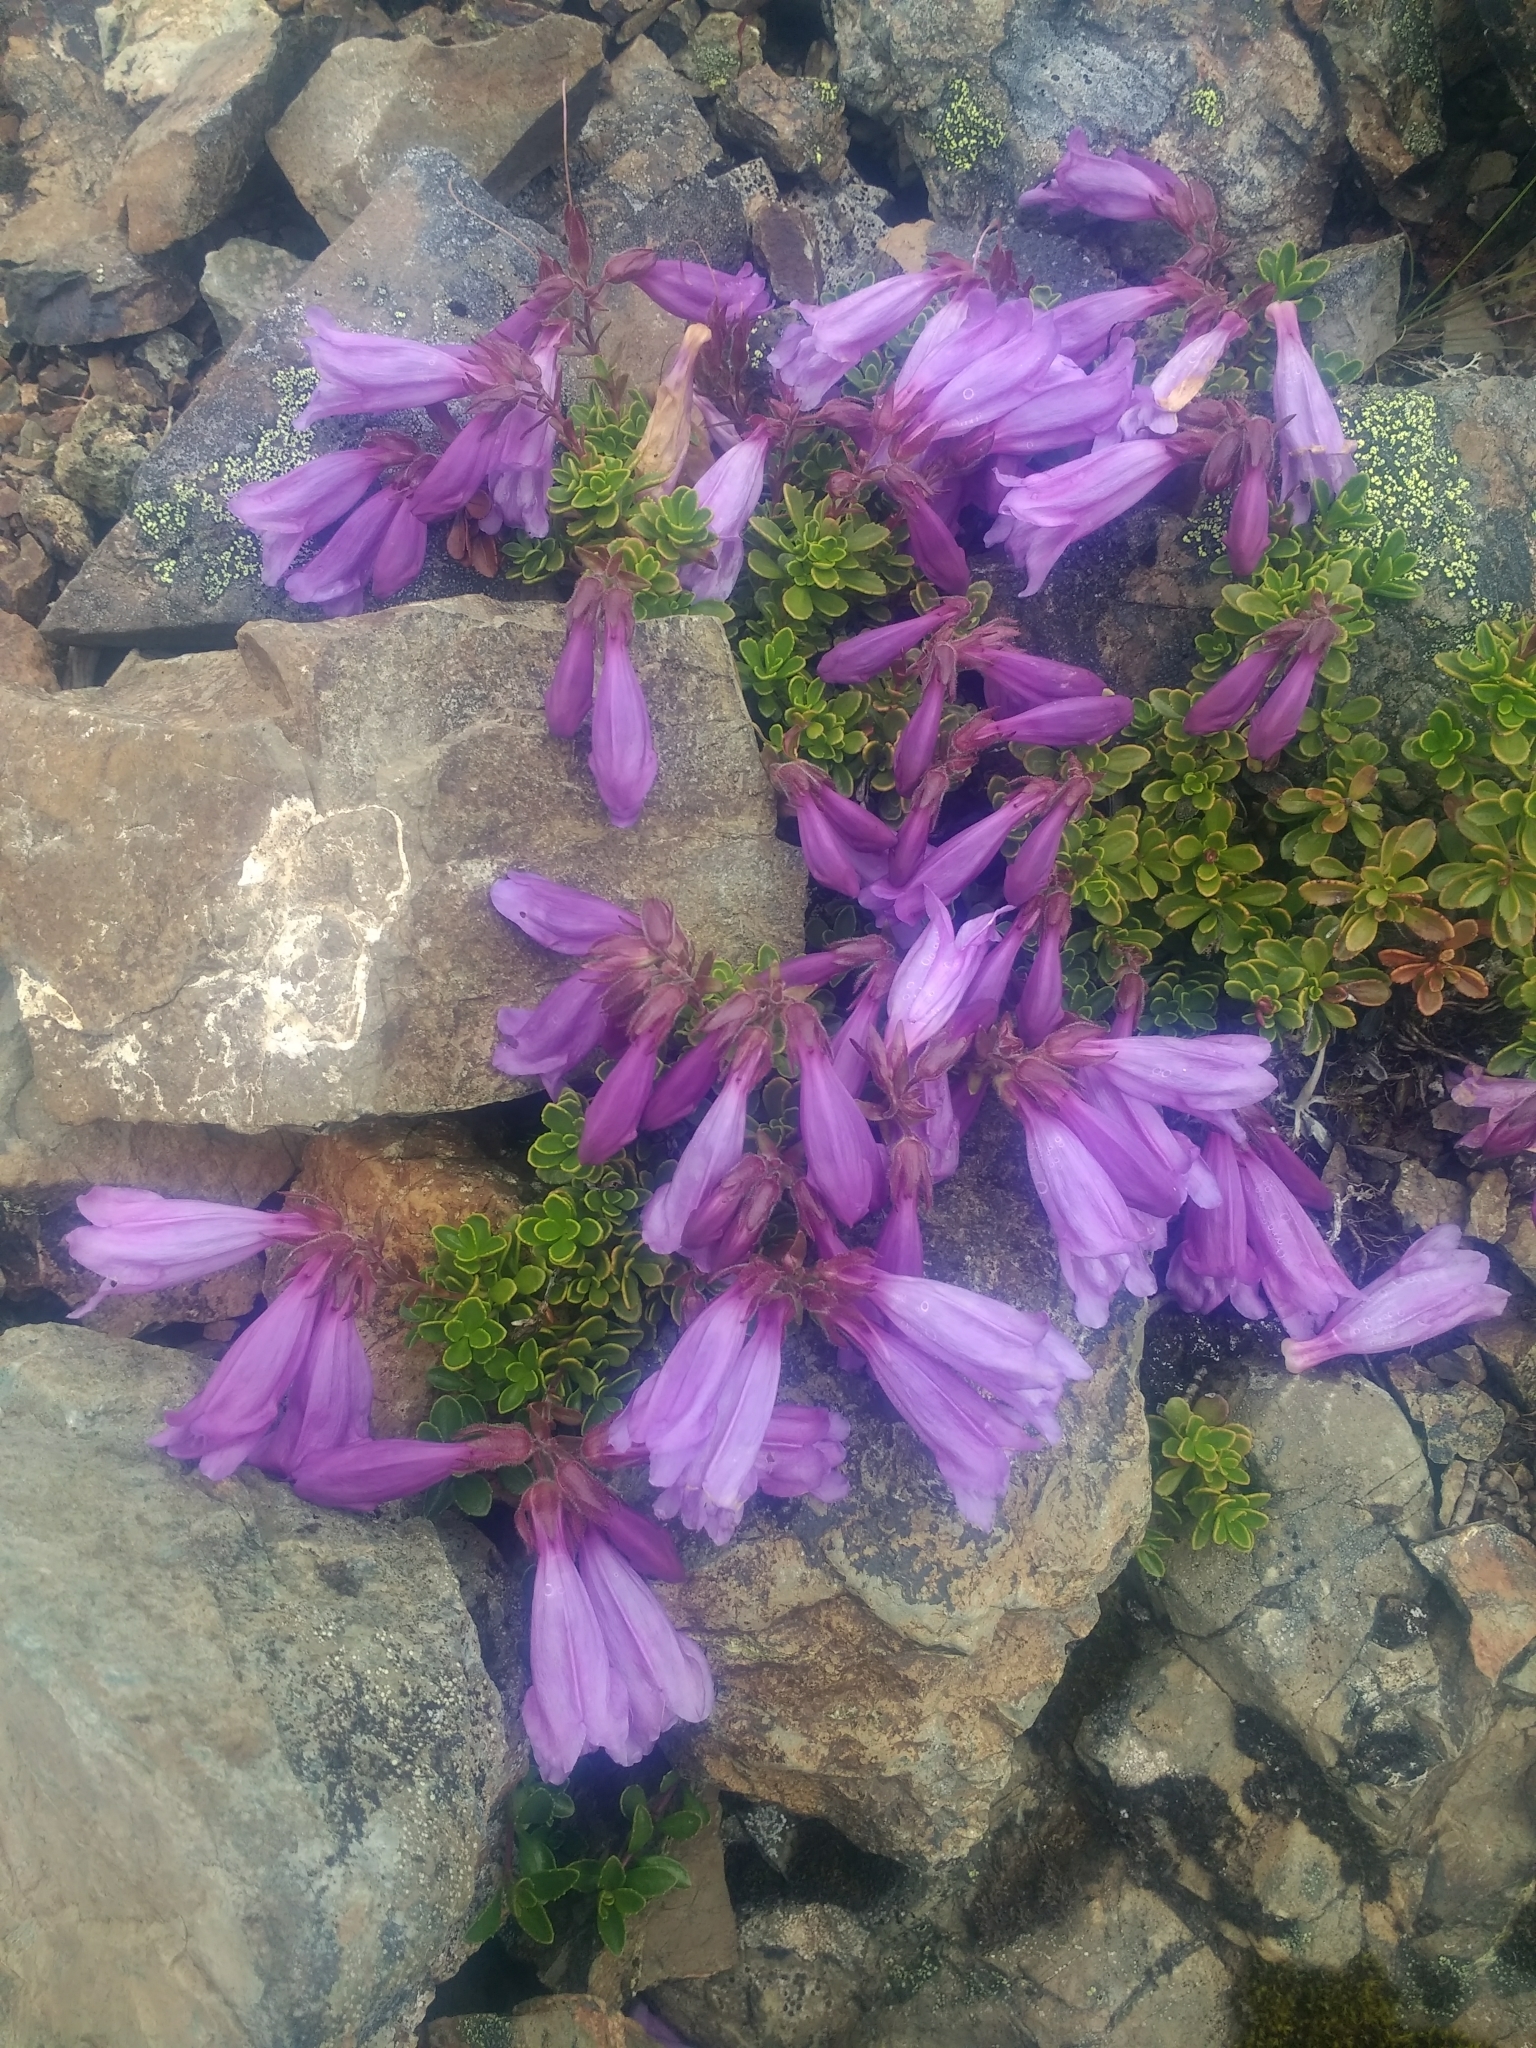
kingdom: Plantae
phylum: Tracheophyta
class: Magnoliopsida
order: Lamiales
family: Plantaginaceae
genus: Penstemon
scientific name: Penstemon davidsonii
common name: Davidson's penstemon
